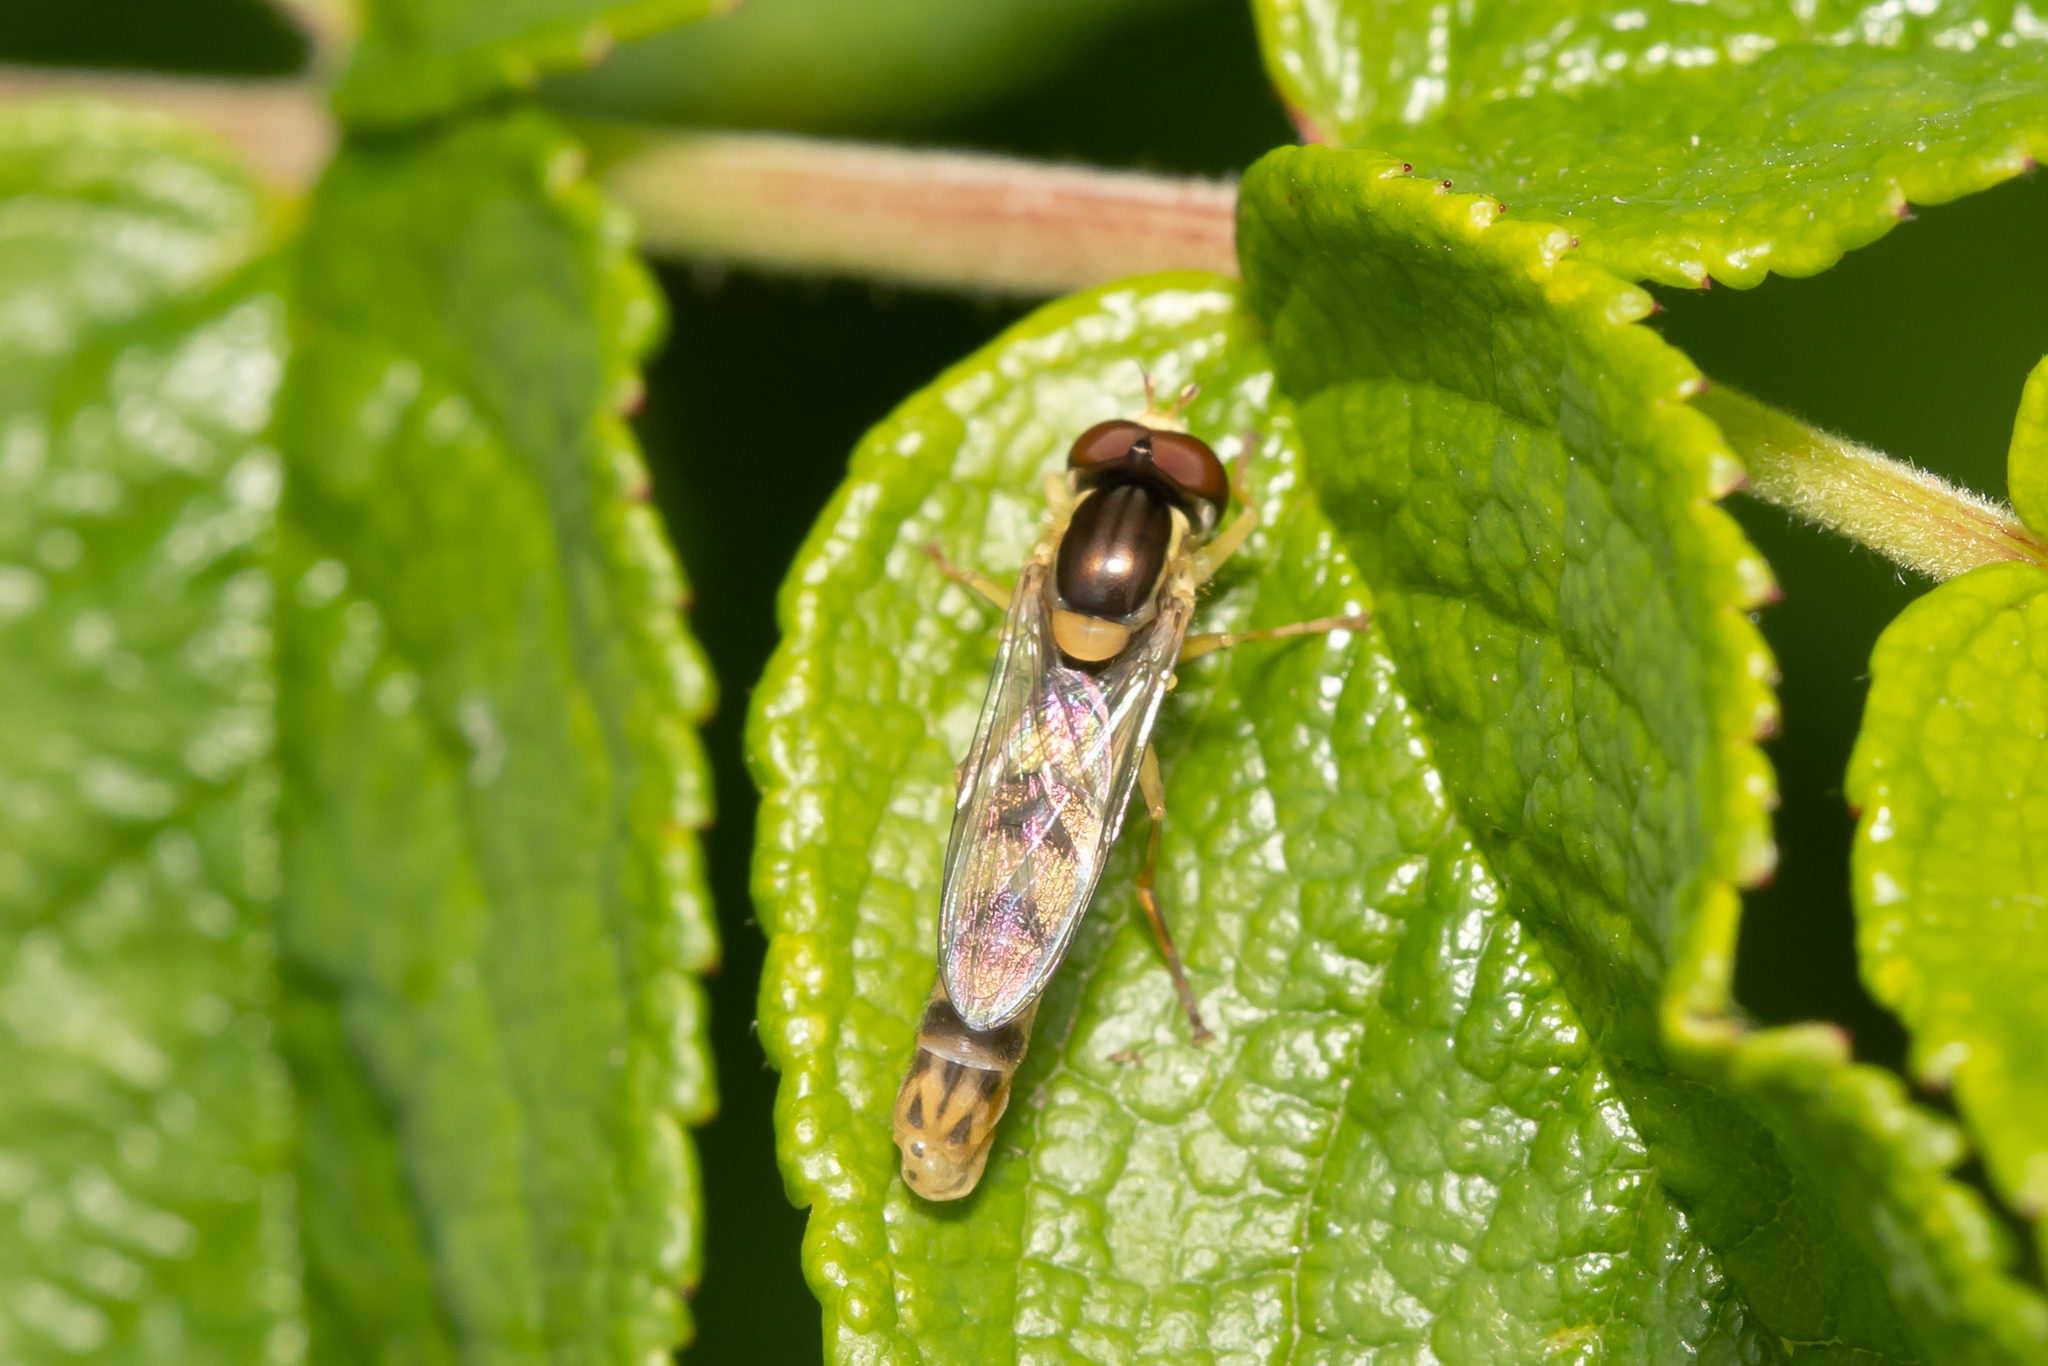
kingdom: Animalia
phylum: Arthropoda
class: Insecta
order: Diptera
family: Syrphidae
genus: Sphaerophoria
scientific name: Sphaerophoria scripta
